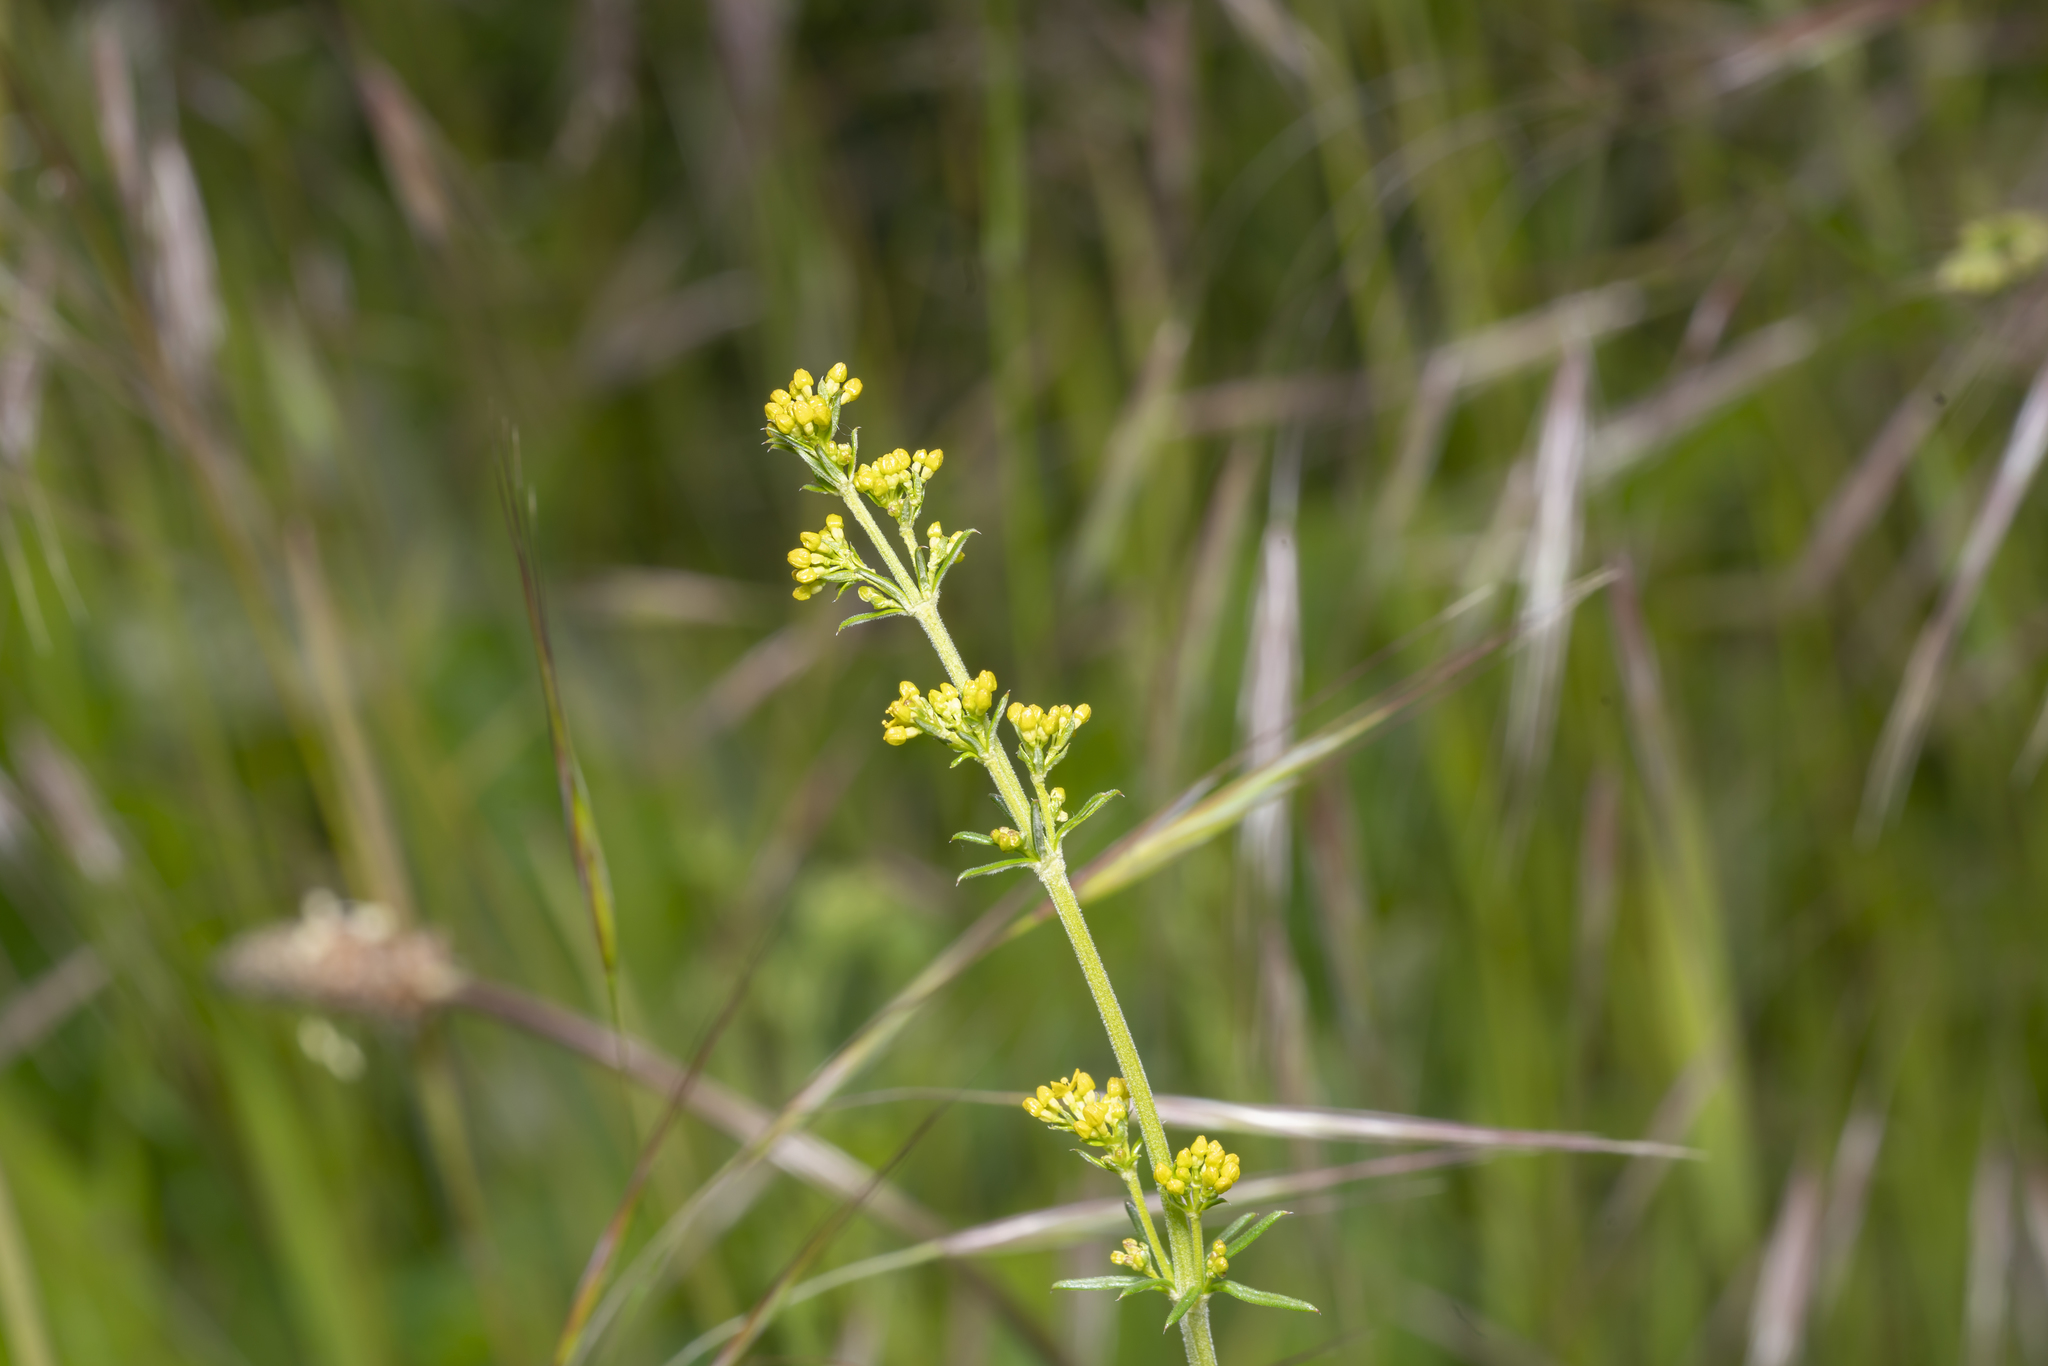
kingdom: Plantae
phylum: Tracheophyta
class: Magnoliopsida
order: Gentianales
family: Rubiaceae
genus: Galium
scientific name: Galium verum
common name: Lady's bedstraw
